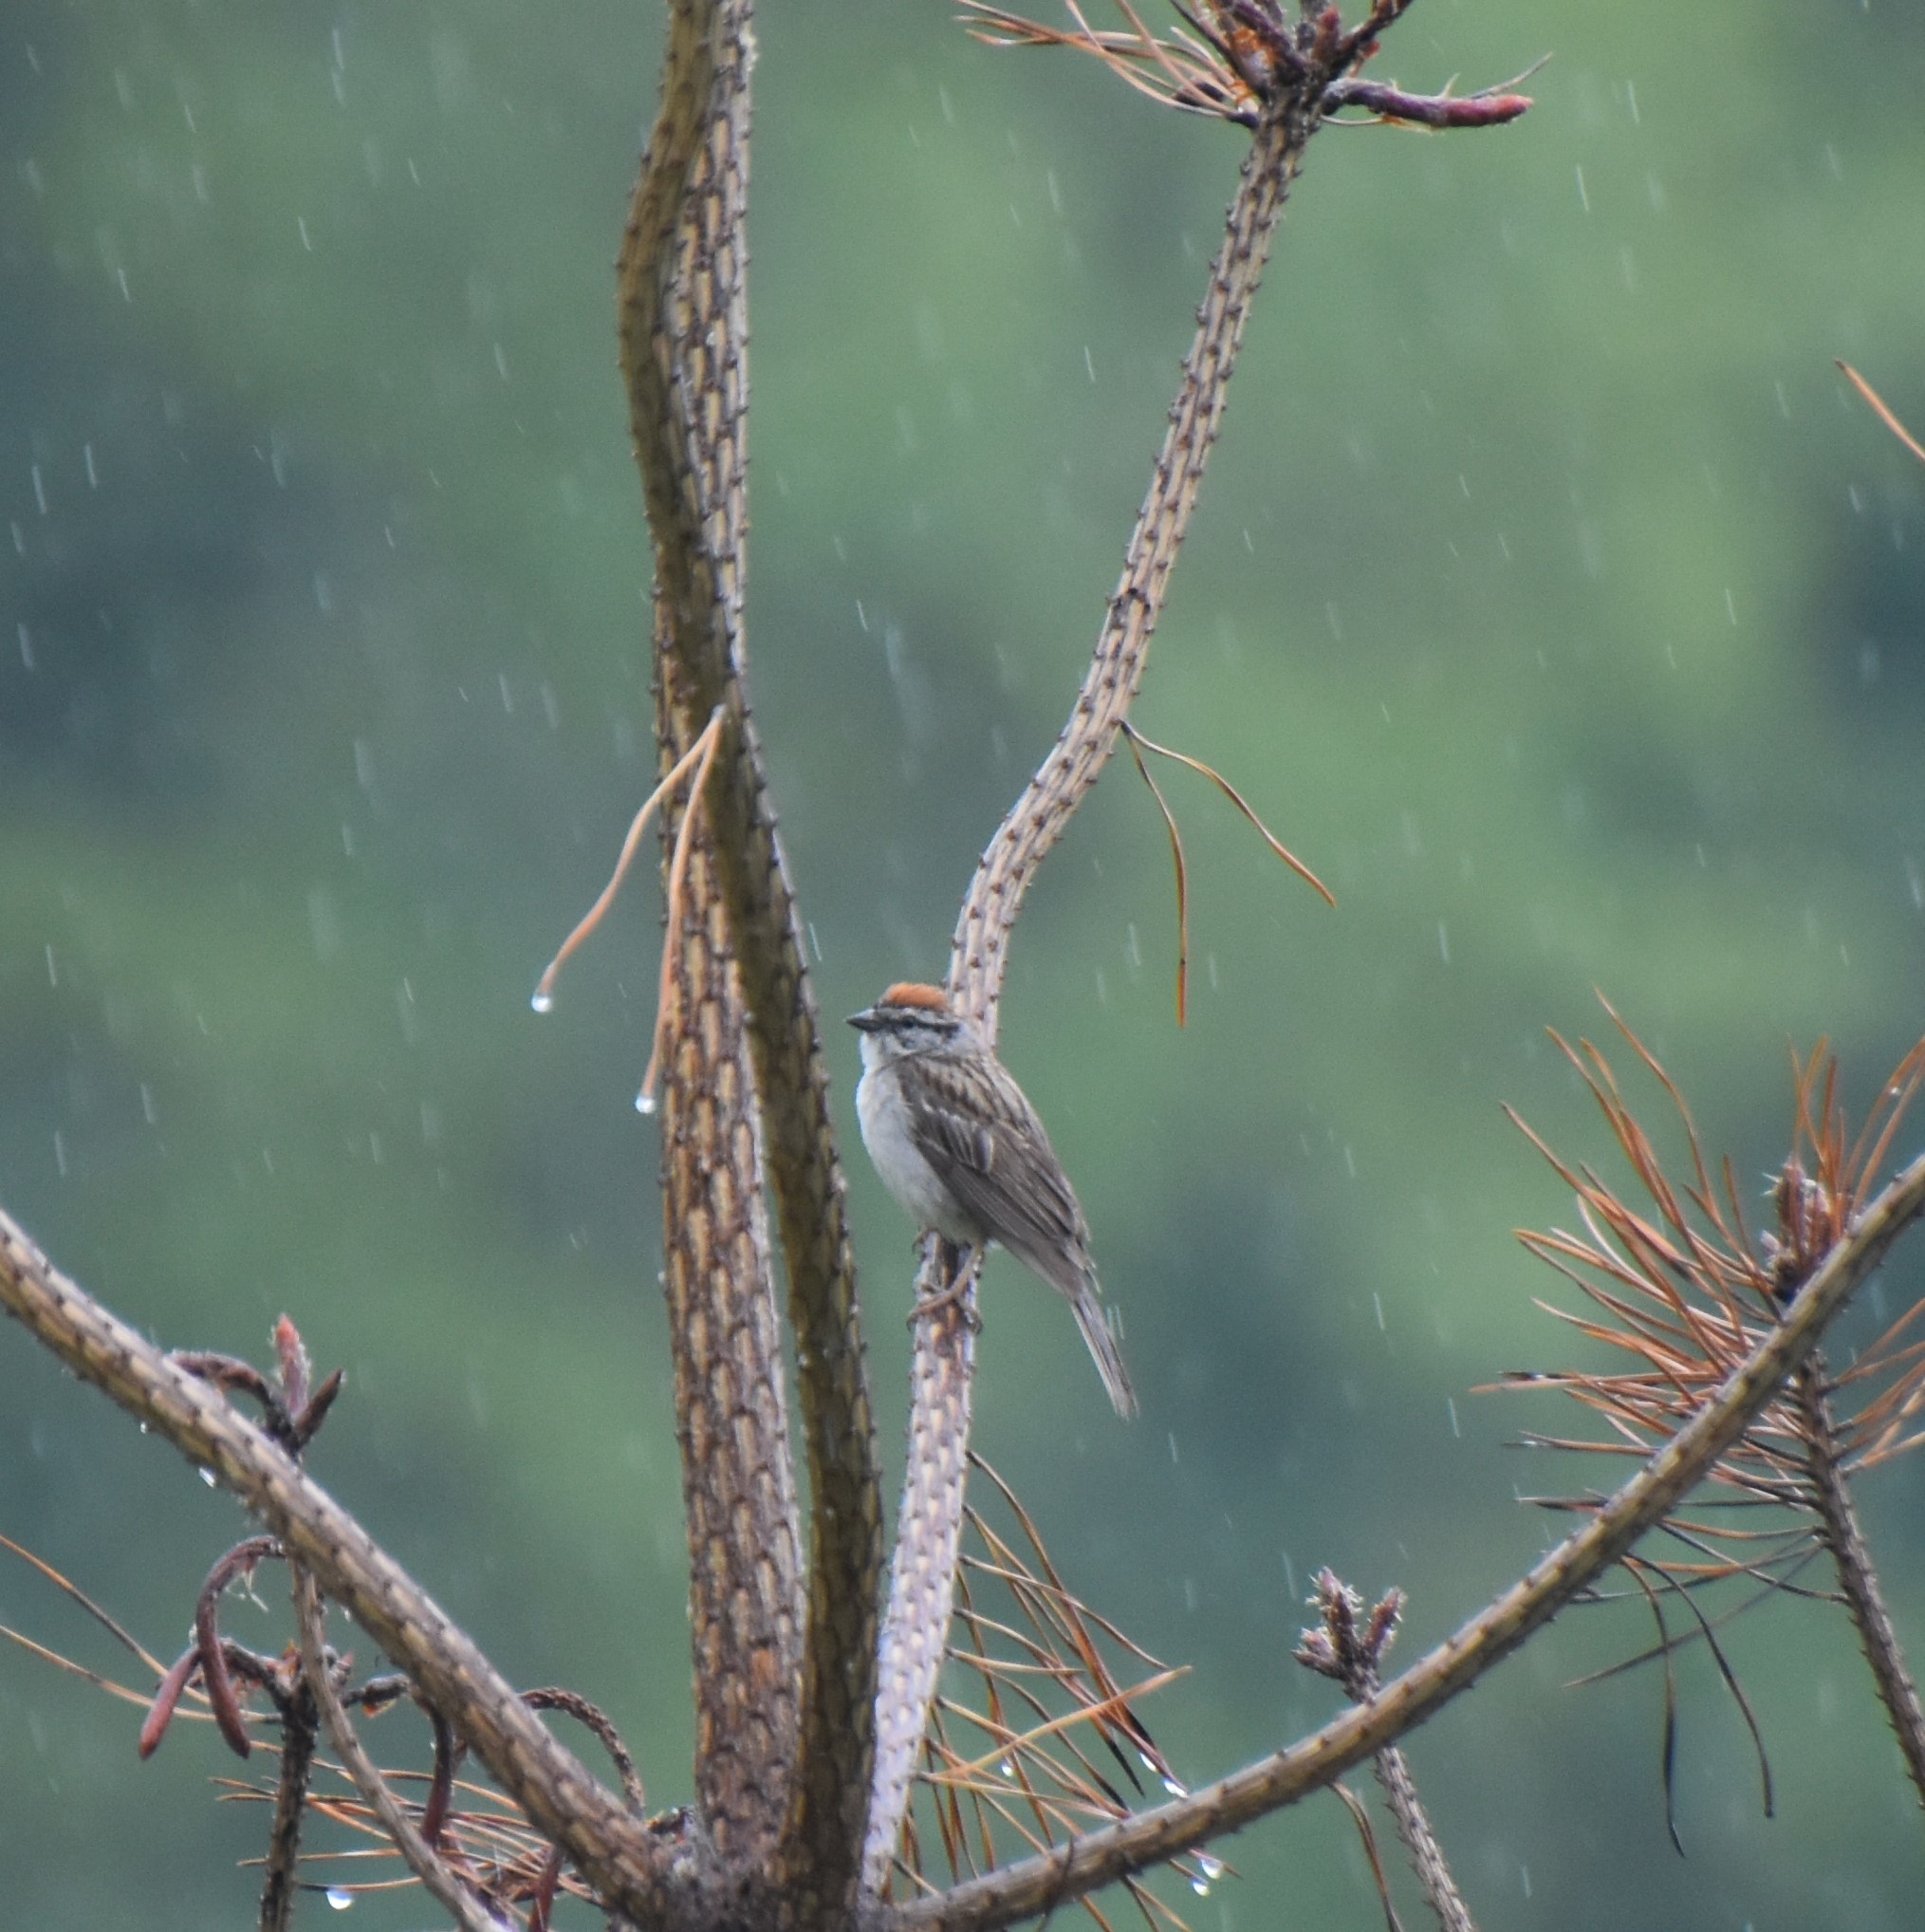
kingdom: Animalia
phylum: Chordata
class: Aves
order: Passeriformes
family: Passerellidae
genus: Spizella
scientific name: Spizella passerina
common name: Chipping sparrow
